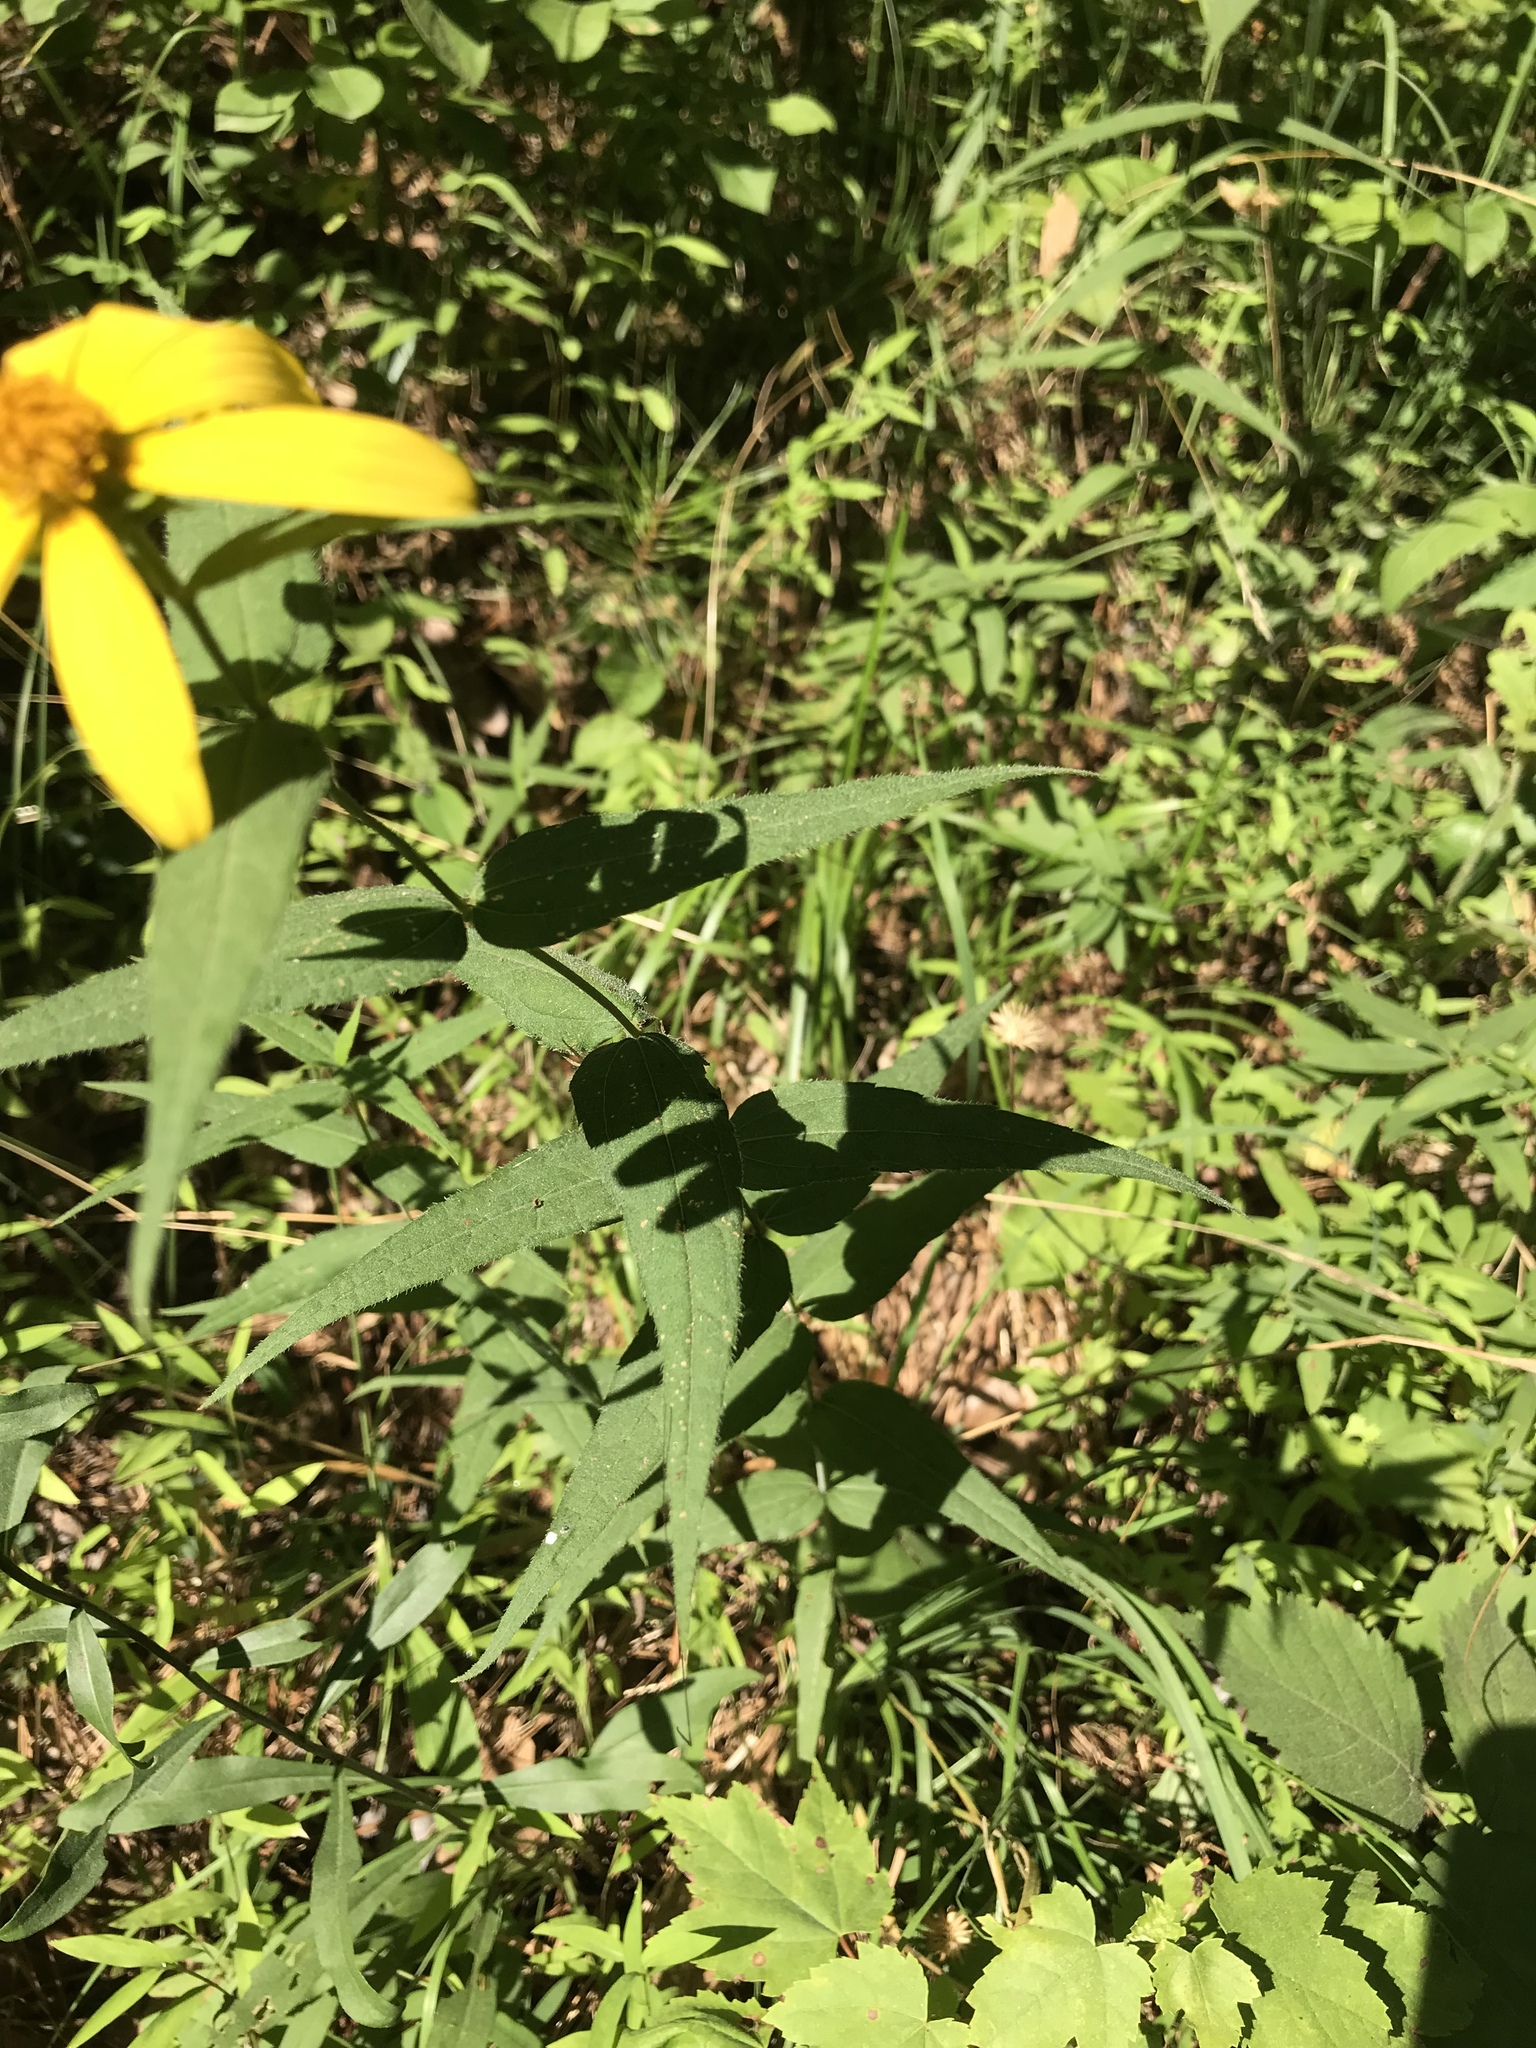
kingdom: Plantae
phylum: Tracheophyta
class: Magnoliopsida
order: Asterales
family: Asteraceae
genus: Helianthus
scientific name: Helianthus divaricatus
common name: Divergent sunflower
